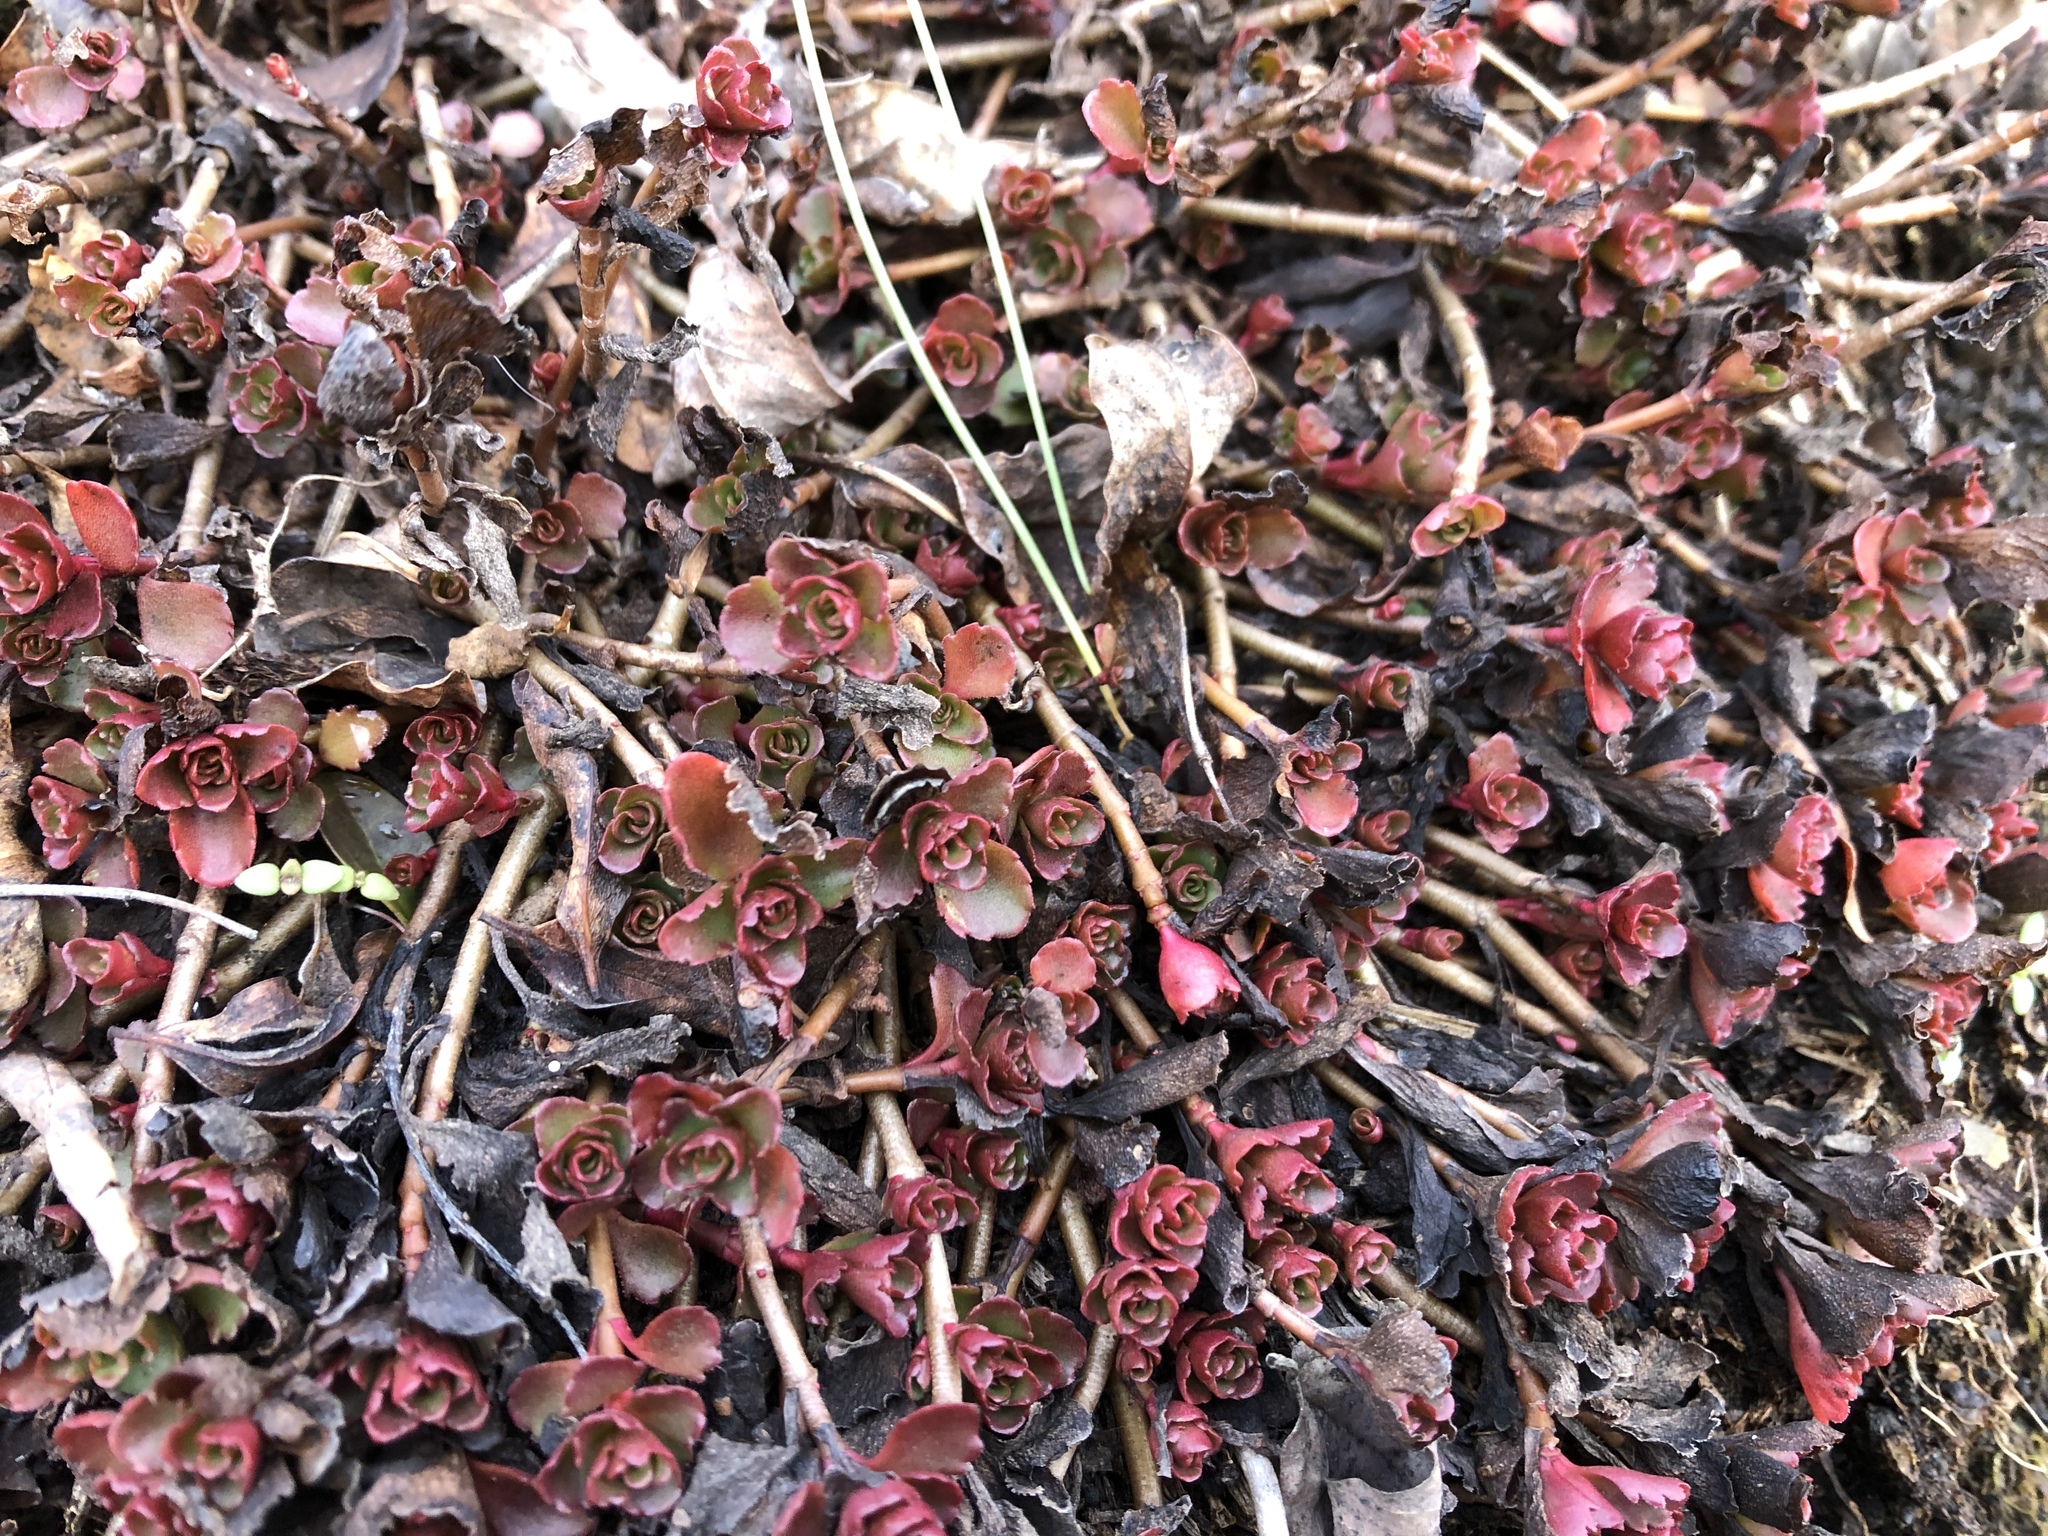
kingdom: Plantae
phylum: Tracheophyta
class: Magnoliopsida
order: Saxifragales
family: Crassulaceae
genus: Phedimus
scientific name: Phedimus spurius
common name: Caucasian stonecrop
